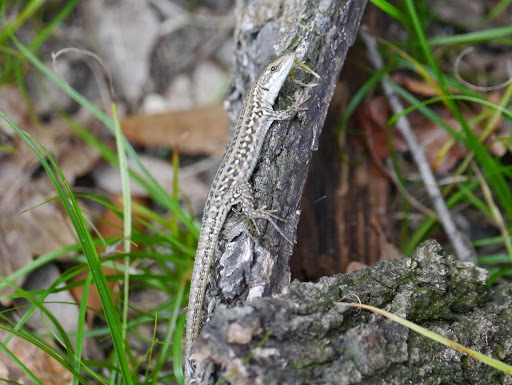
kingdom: Animalia
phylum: Chordata
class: Squamata
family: Lacertidae
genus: Podarcis
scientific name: Podarcis siculus
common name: Italian wall lizard
